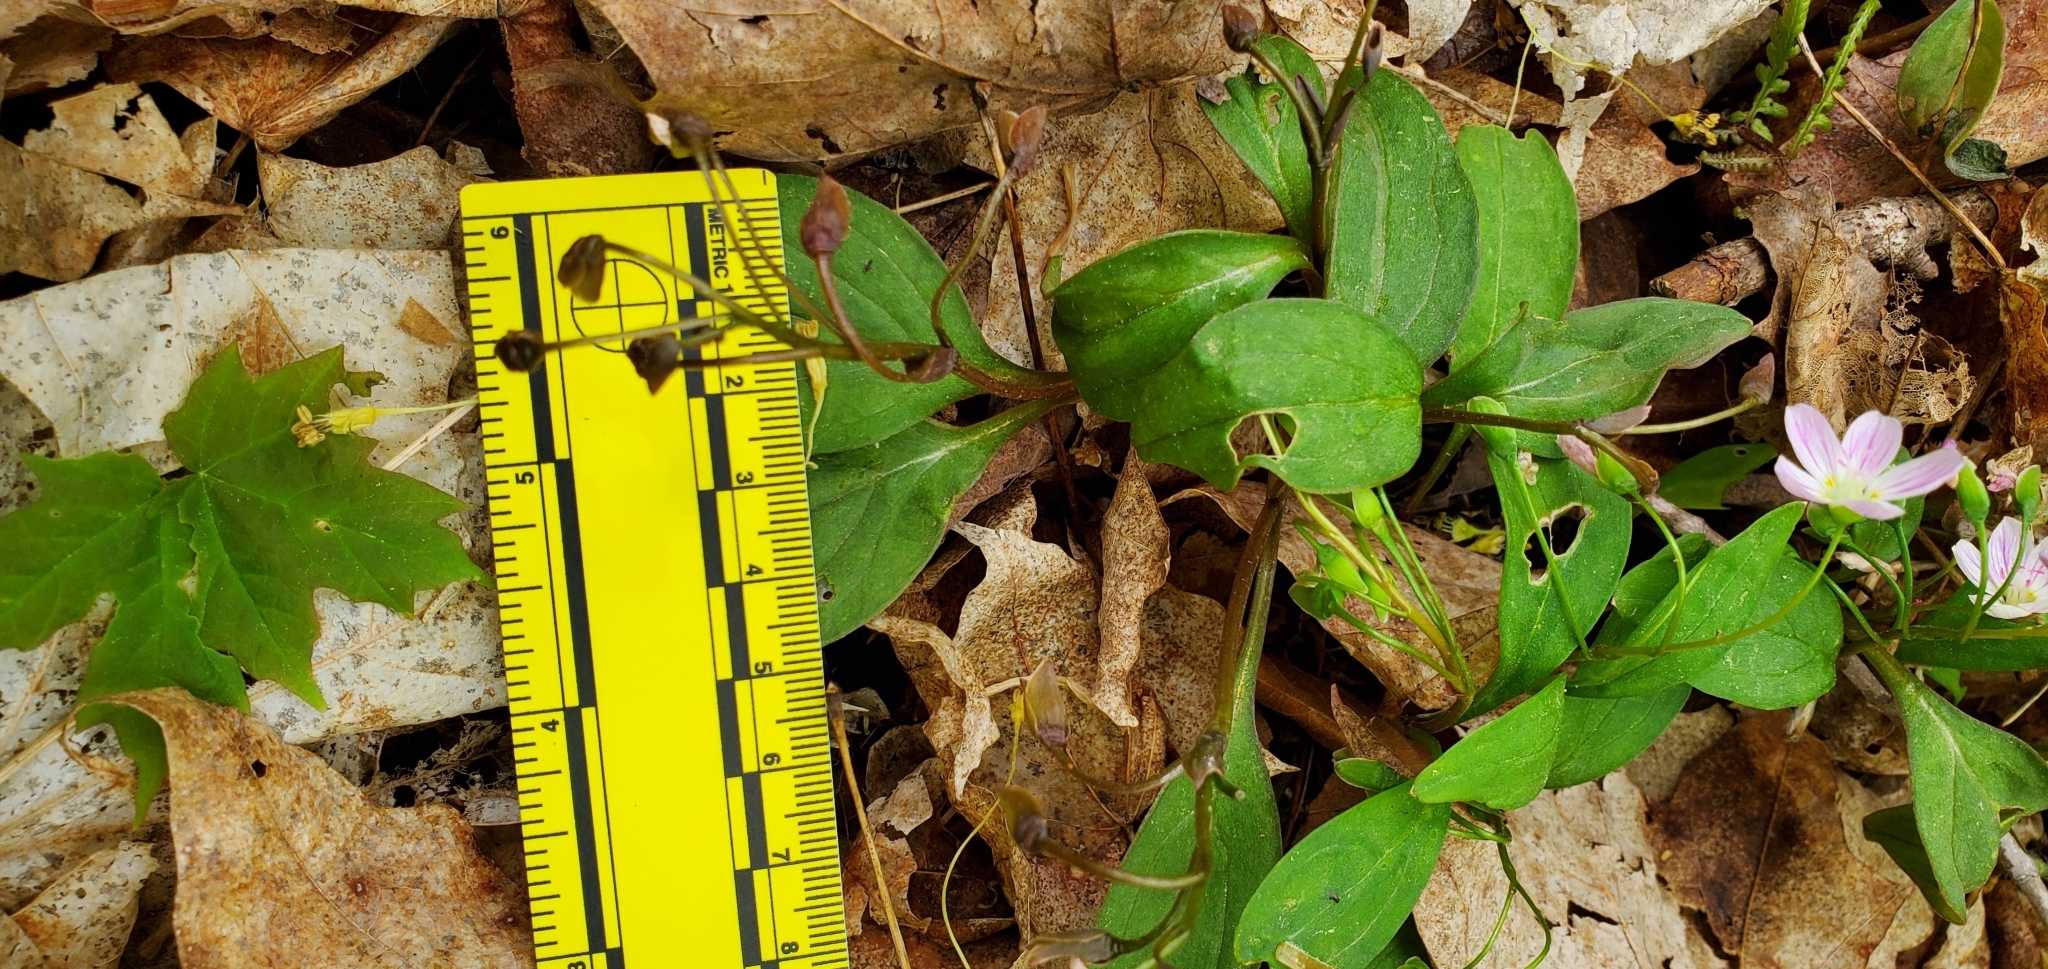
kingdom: Plantae
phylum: Tracheophyta
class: Magnoliopsida
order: Caryophyllales
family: Montiaceae
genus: Claytonia
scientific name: Claytonia caroliniana
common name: Carolina spring beauty
